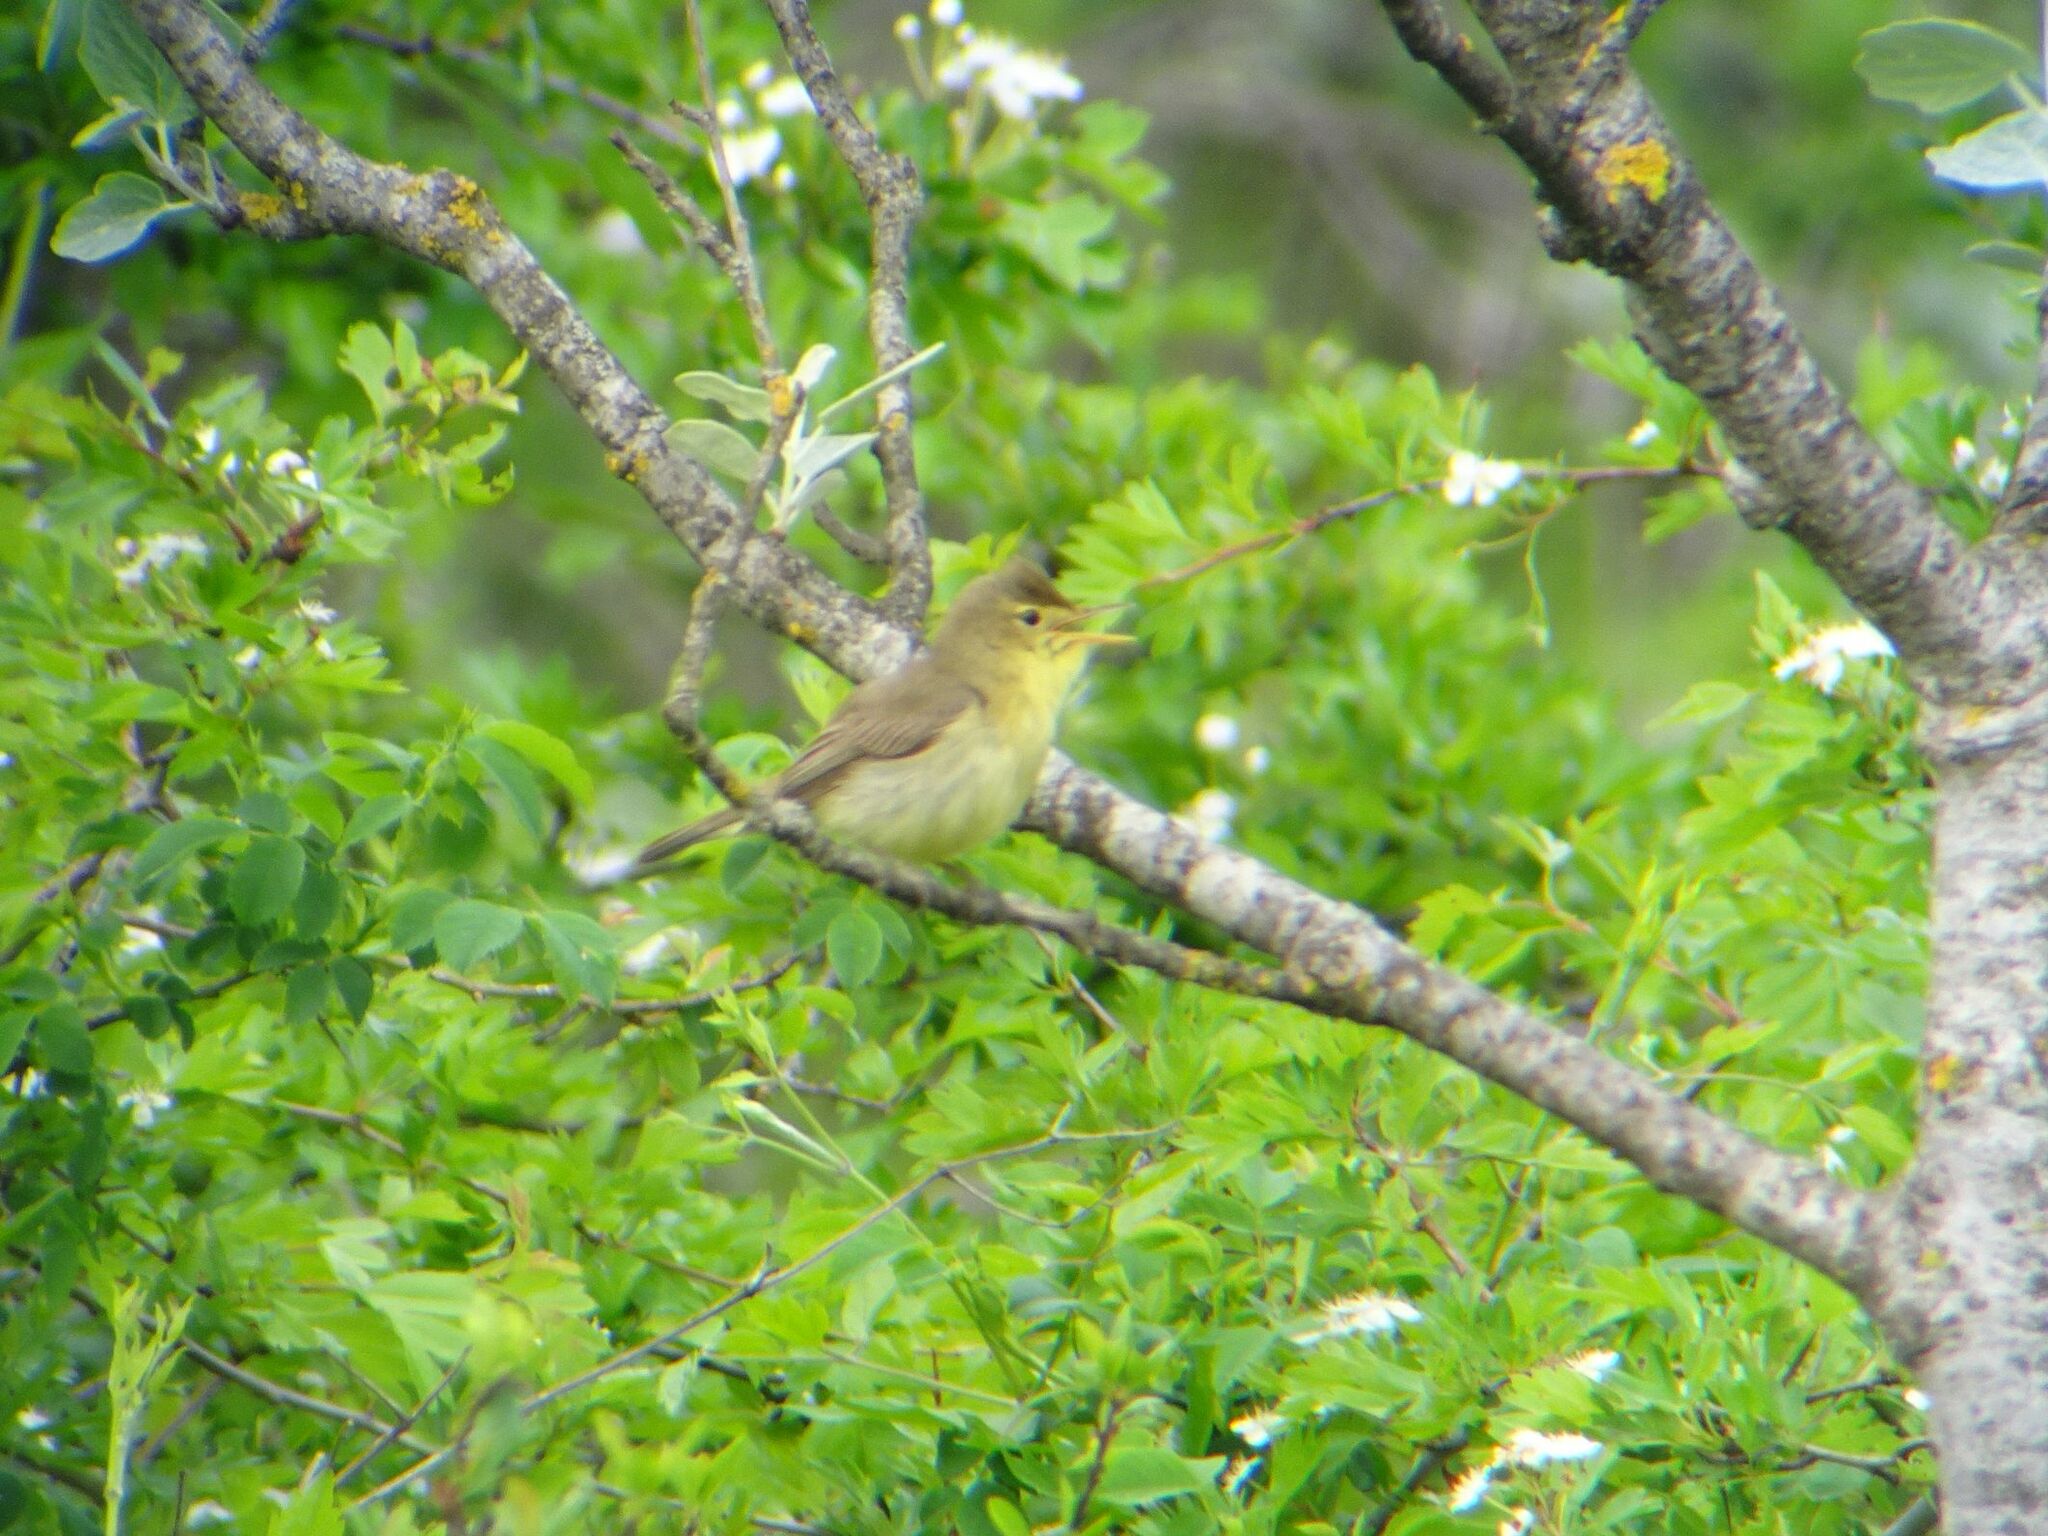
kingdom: Animalia
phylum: Chordata
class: Aves
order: Passeriformes
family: Acrocephalidae
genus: Hippolais
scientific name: Hippolais polyglotta
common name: Melodious warbler
